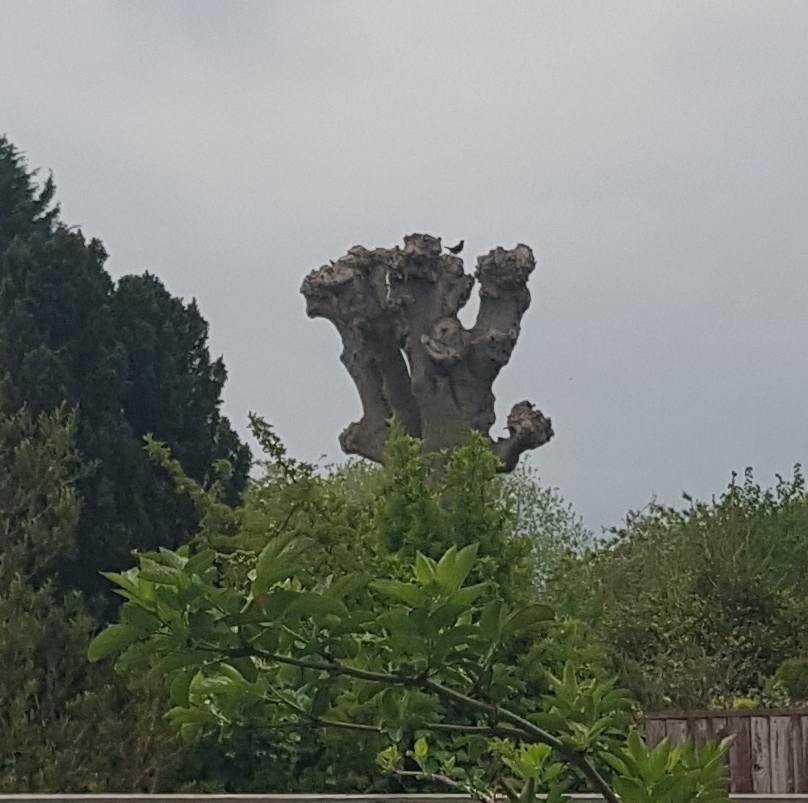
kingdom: Animalia
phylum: Chordata
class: Aves
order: Passeriformes
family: Turdidae
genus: Turdus
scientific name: Turdus merula
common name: Common blackbird
